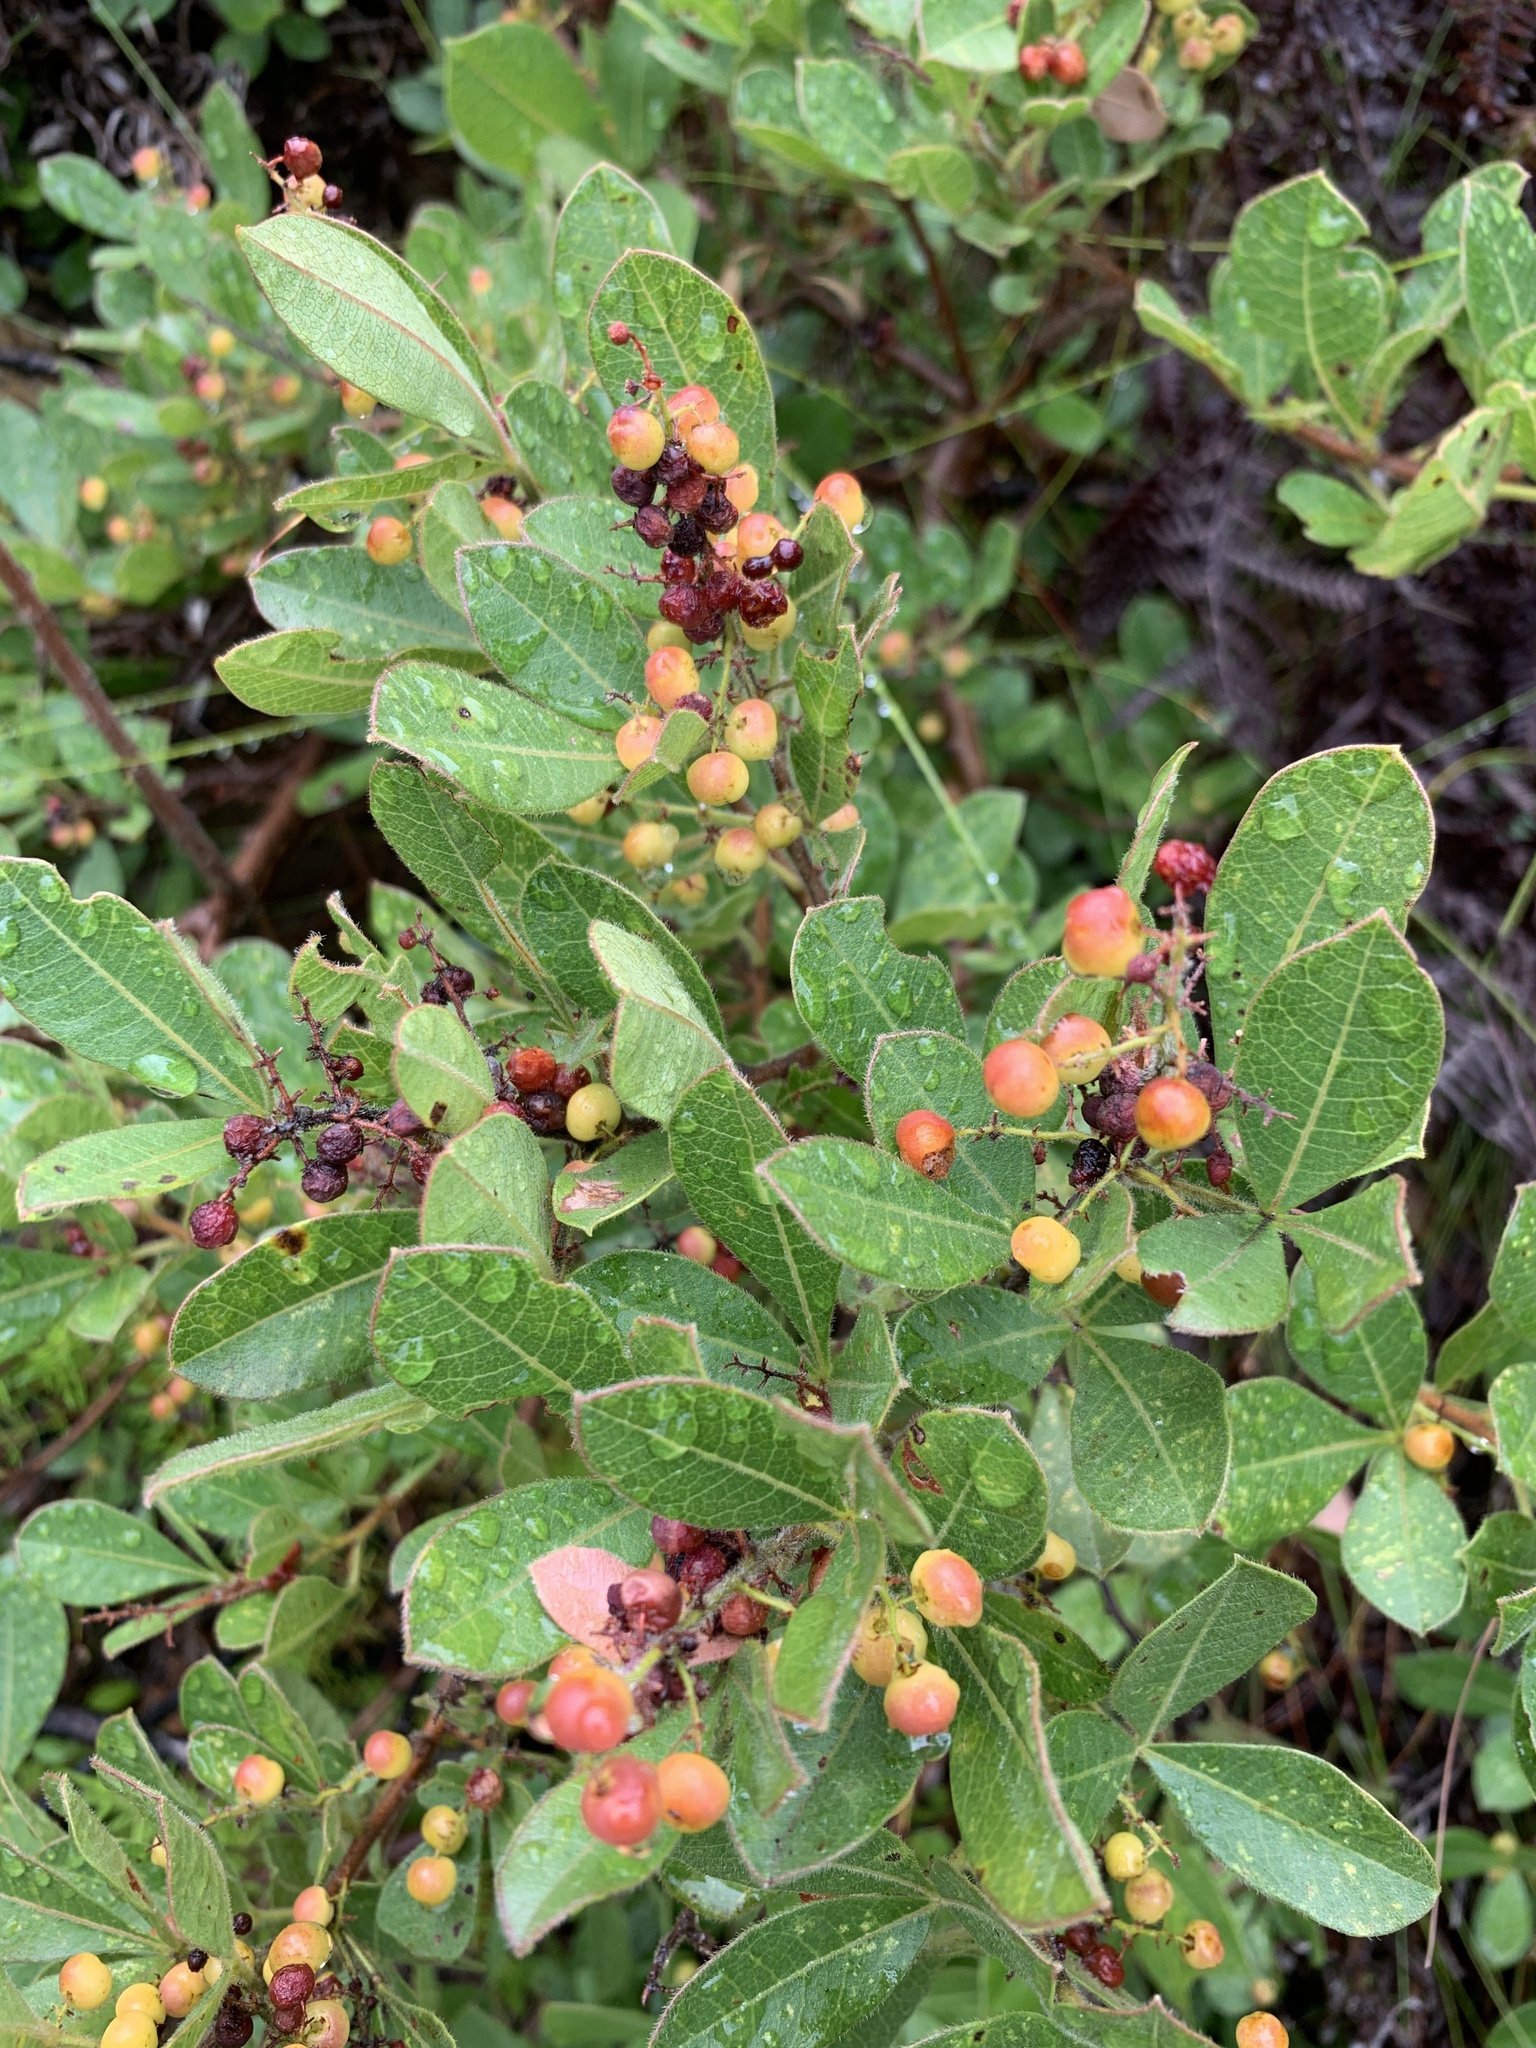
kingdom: Plantae
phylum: Tracheophyta
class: Magnoliopsida
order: Sapindales
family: Anacardiaceae
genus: Searsia
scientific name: Searsia laevigata
